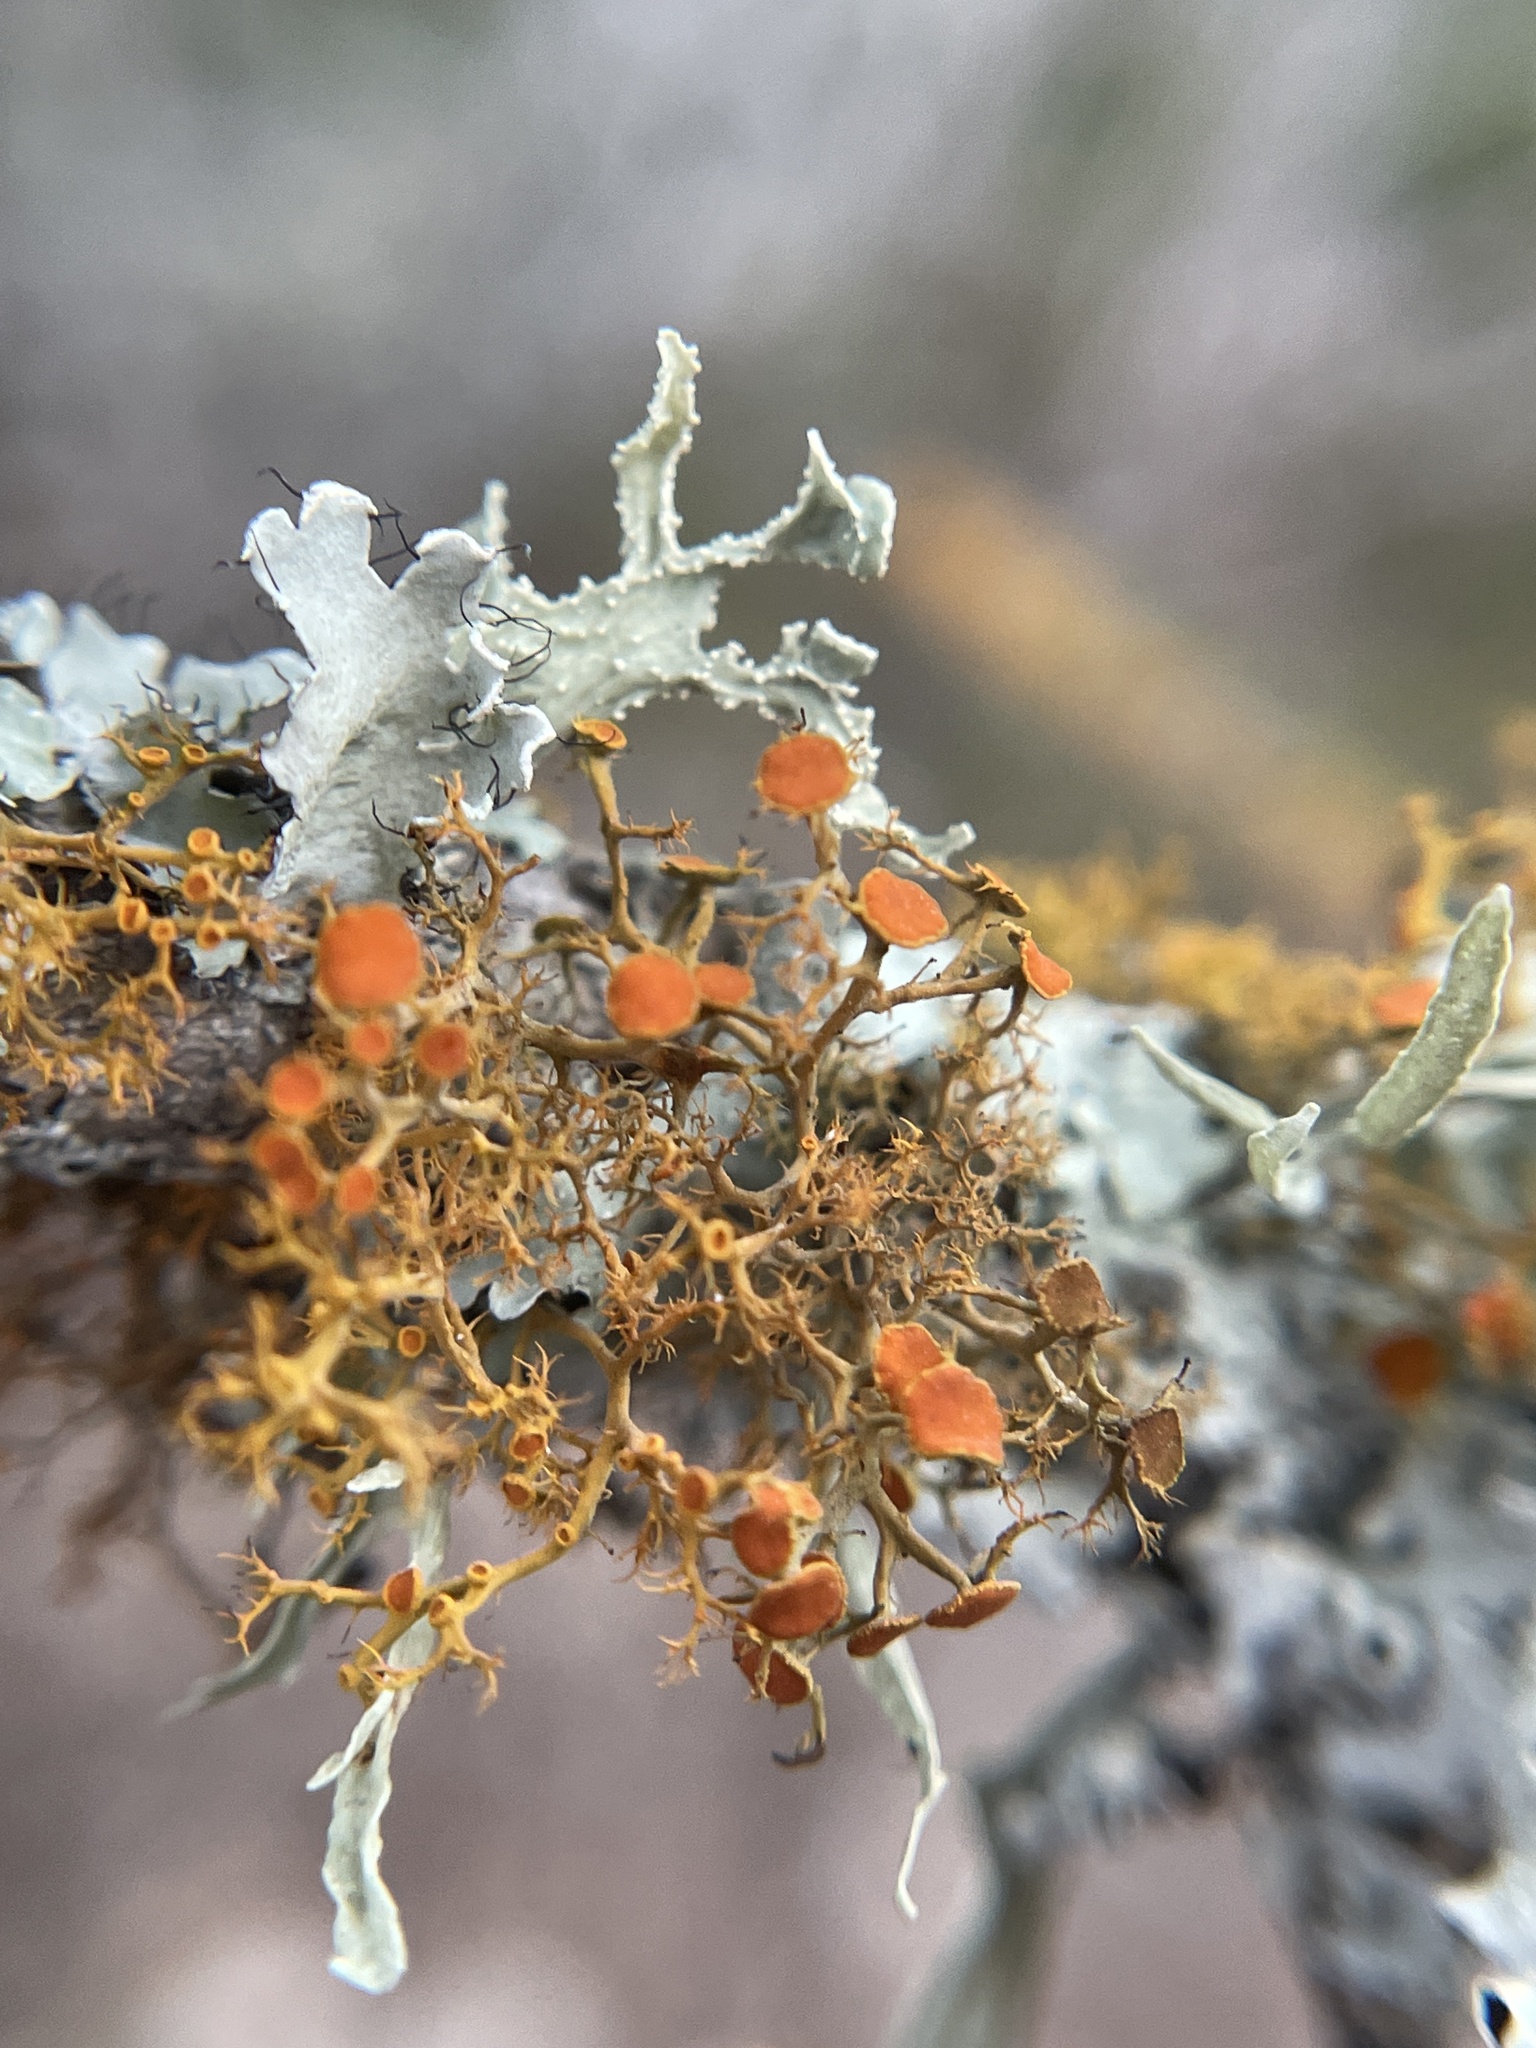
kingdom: Fungi
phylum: Ascomycota
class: Lecanoromycetes
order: Teloschistales
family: Teloschistaceae
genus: Teloschistes
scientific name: Teloschistes exilis
